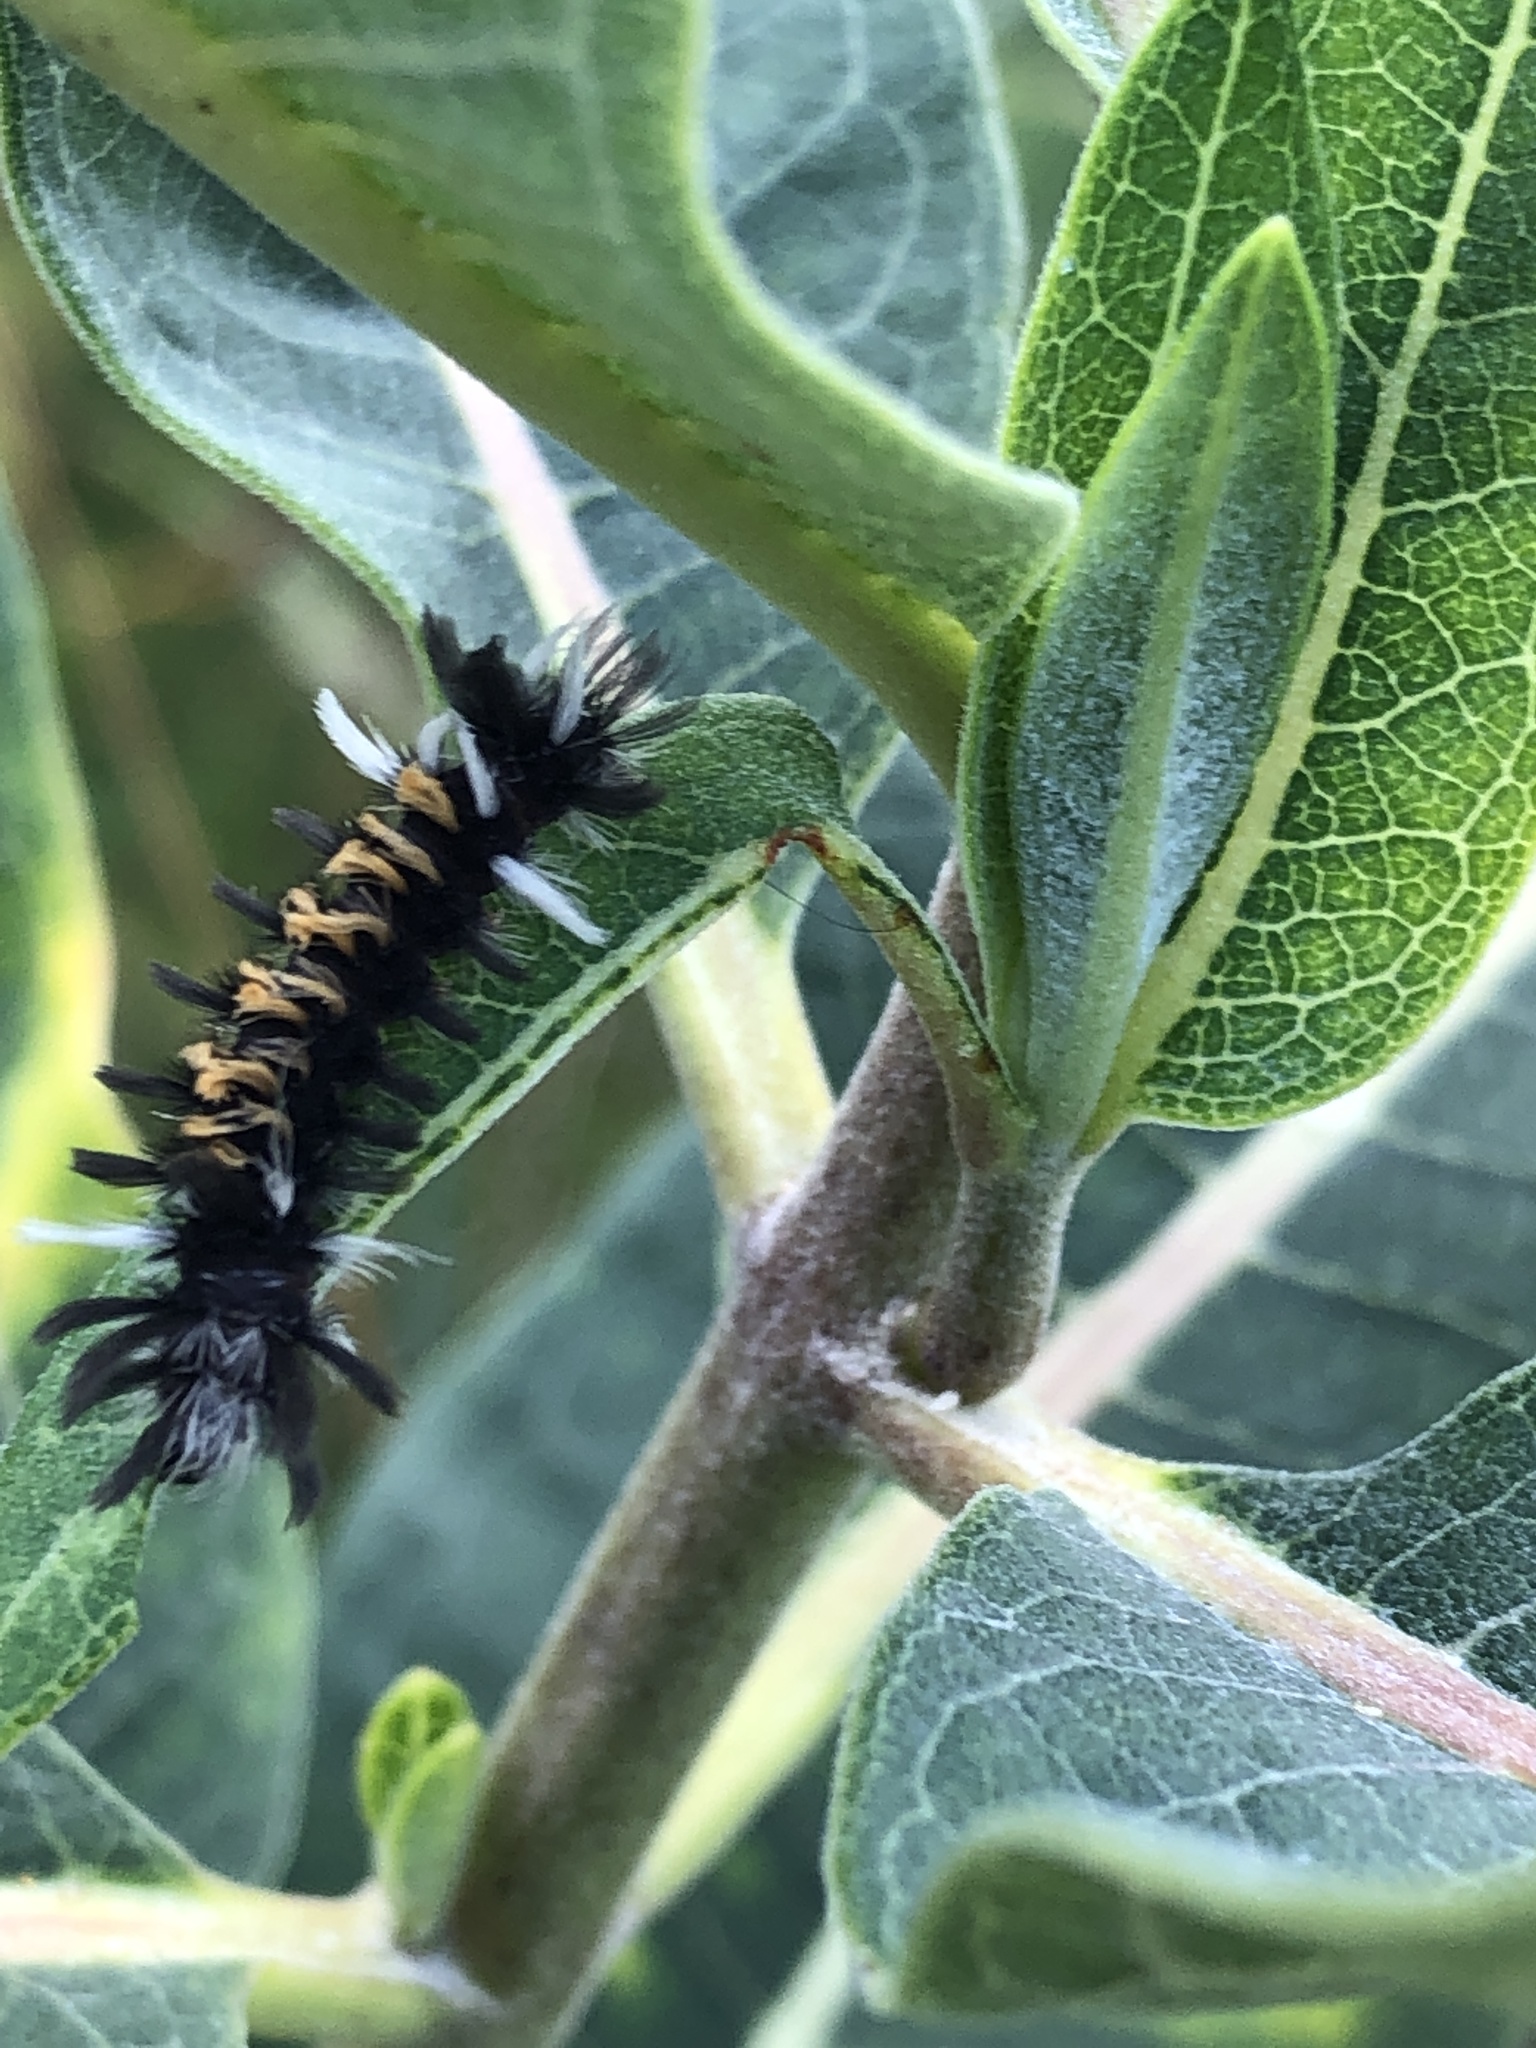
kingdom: Animalia
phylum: Arthropoda
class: Insecta
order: Lepidoptera
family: Erebidae
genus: Euchaetes
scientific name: Euchaetes egle
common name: Milkweed tussock moth
